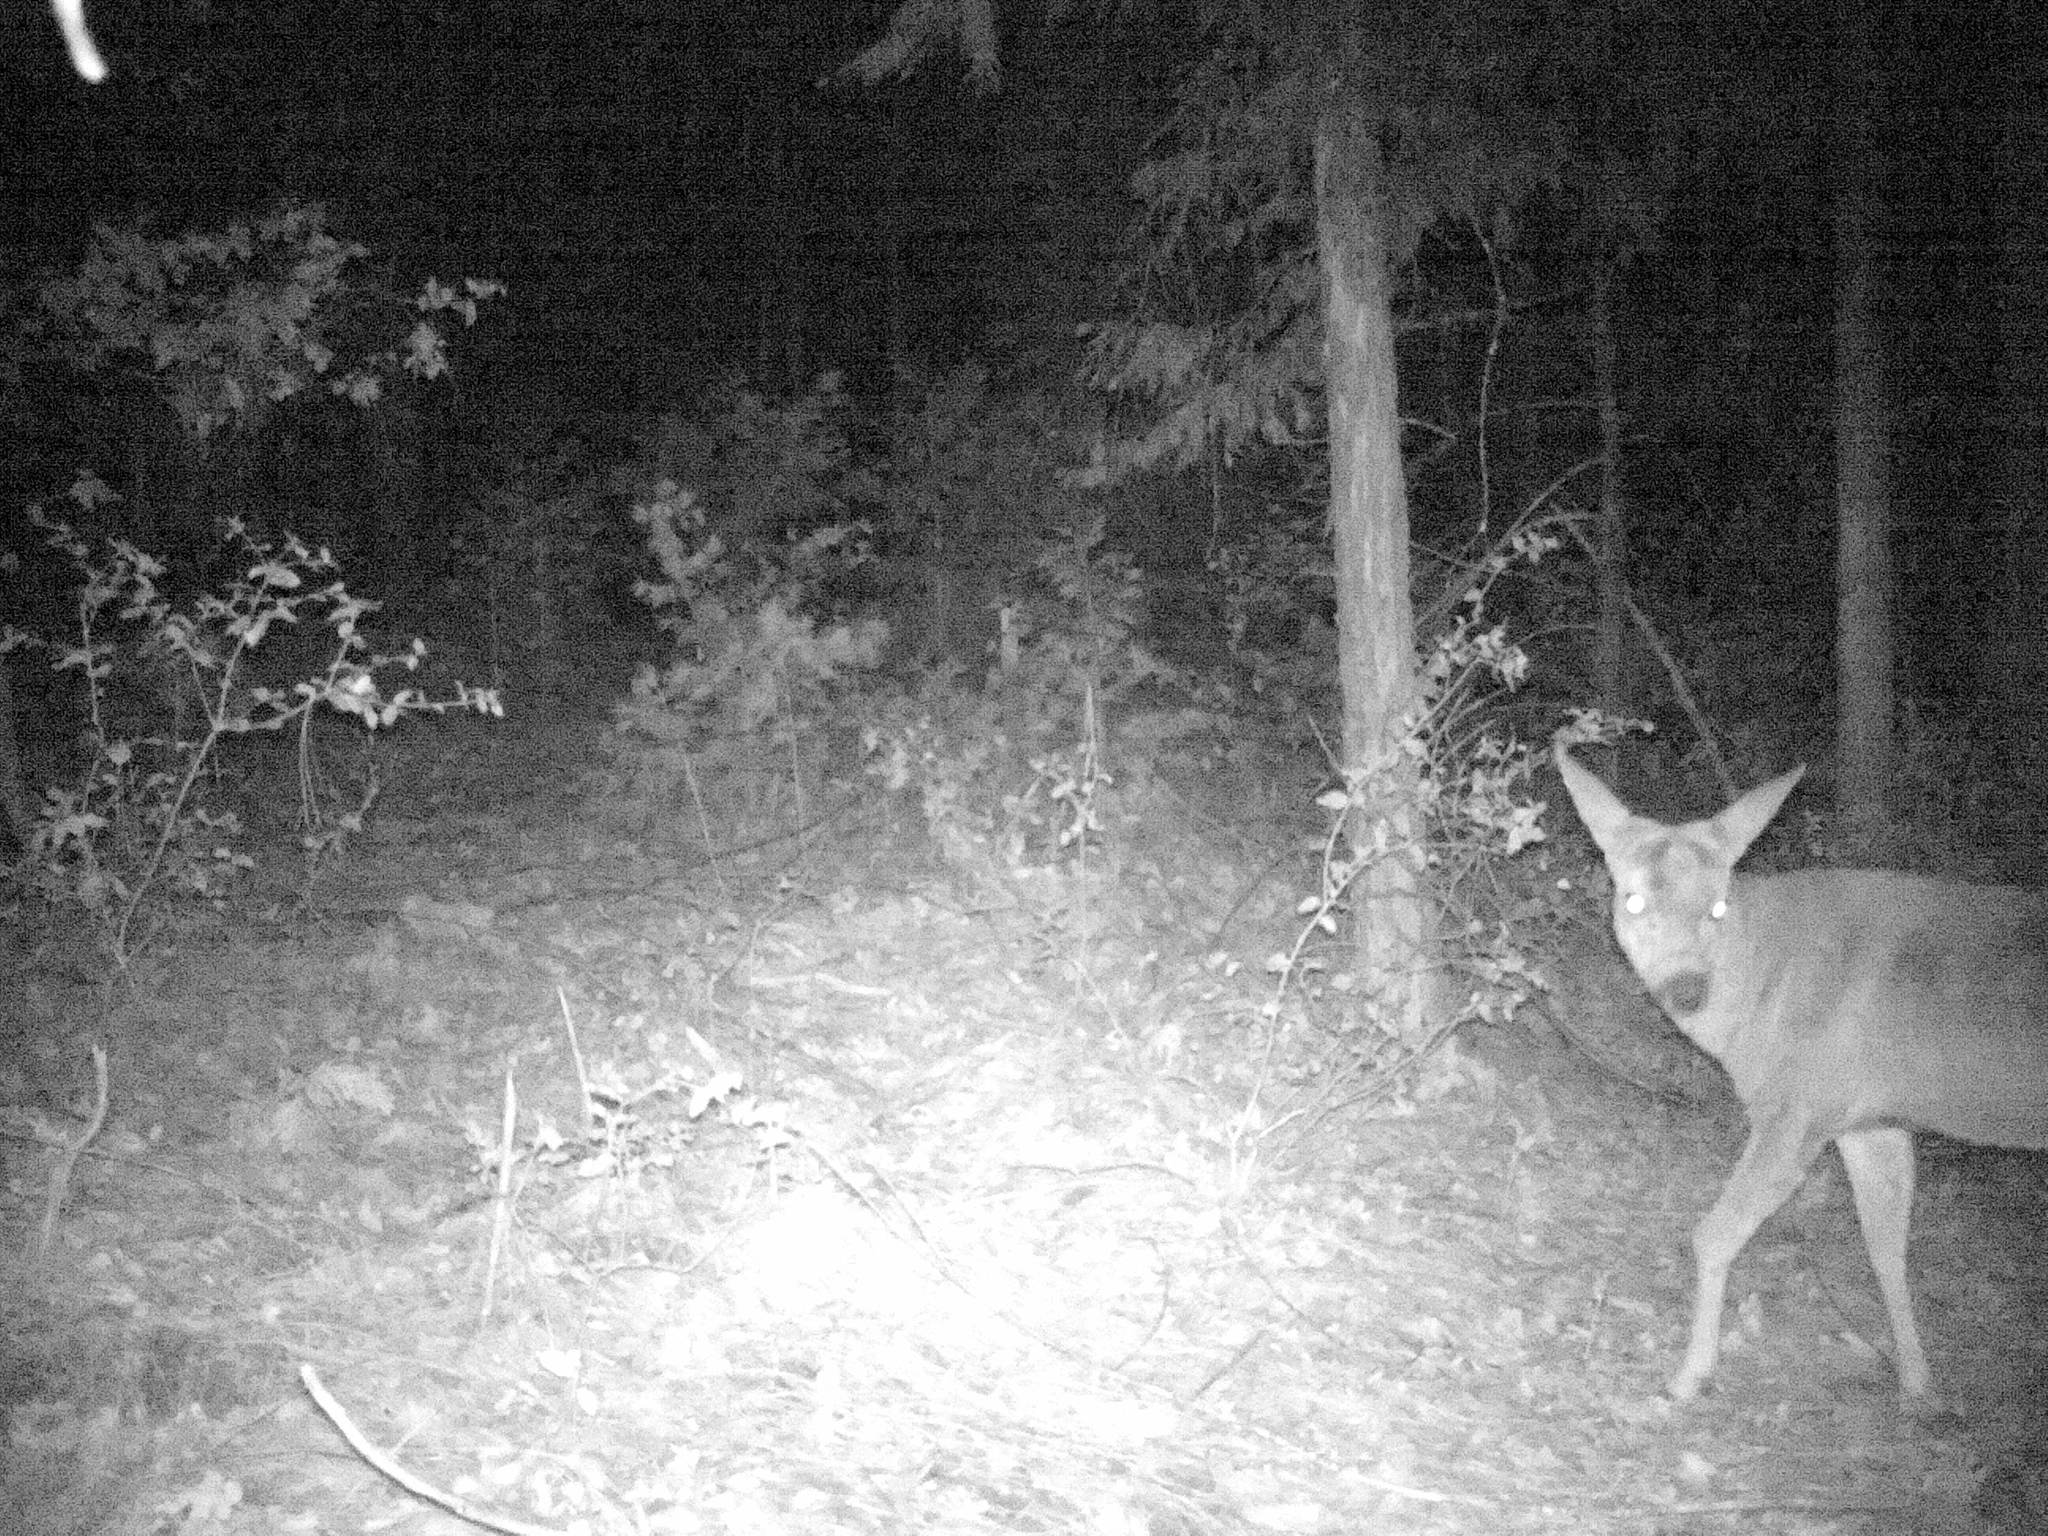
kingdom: Animalia
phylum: Chordata
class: Mammalia
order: Artiodactyla
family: Cervidae
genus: Odocoileus
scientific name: Odocoileus hemionus
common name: Mule deer
